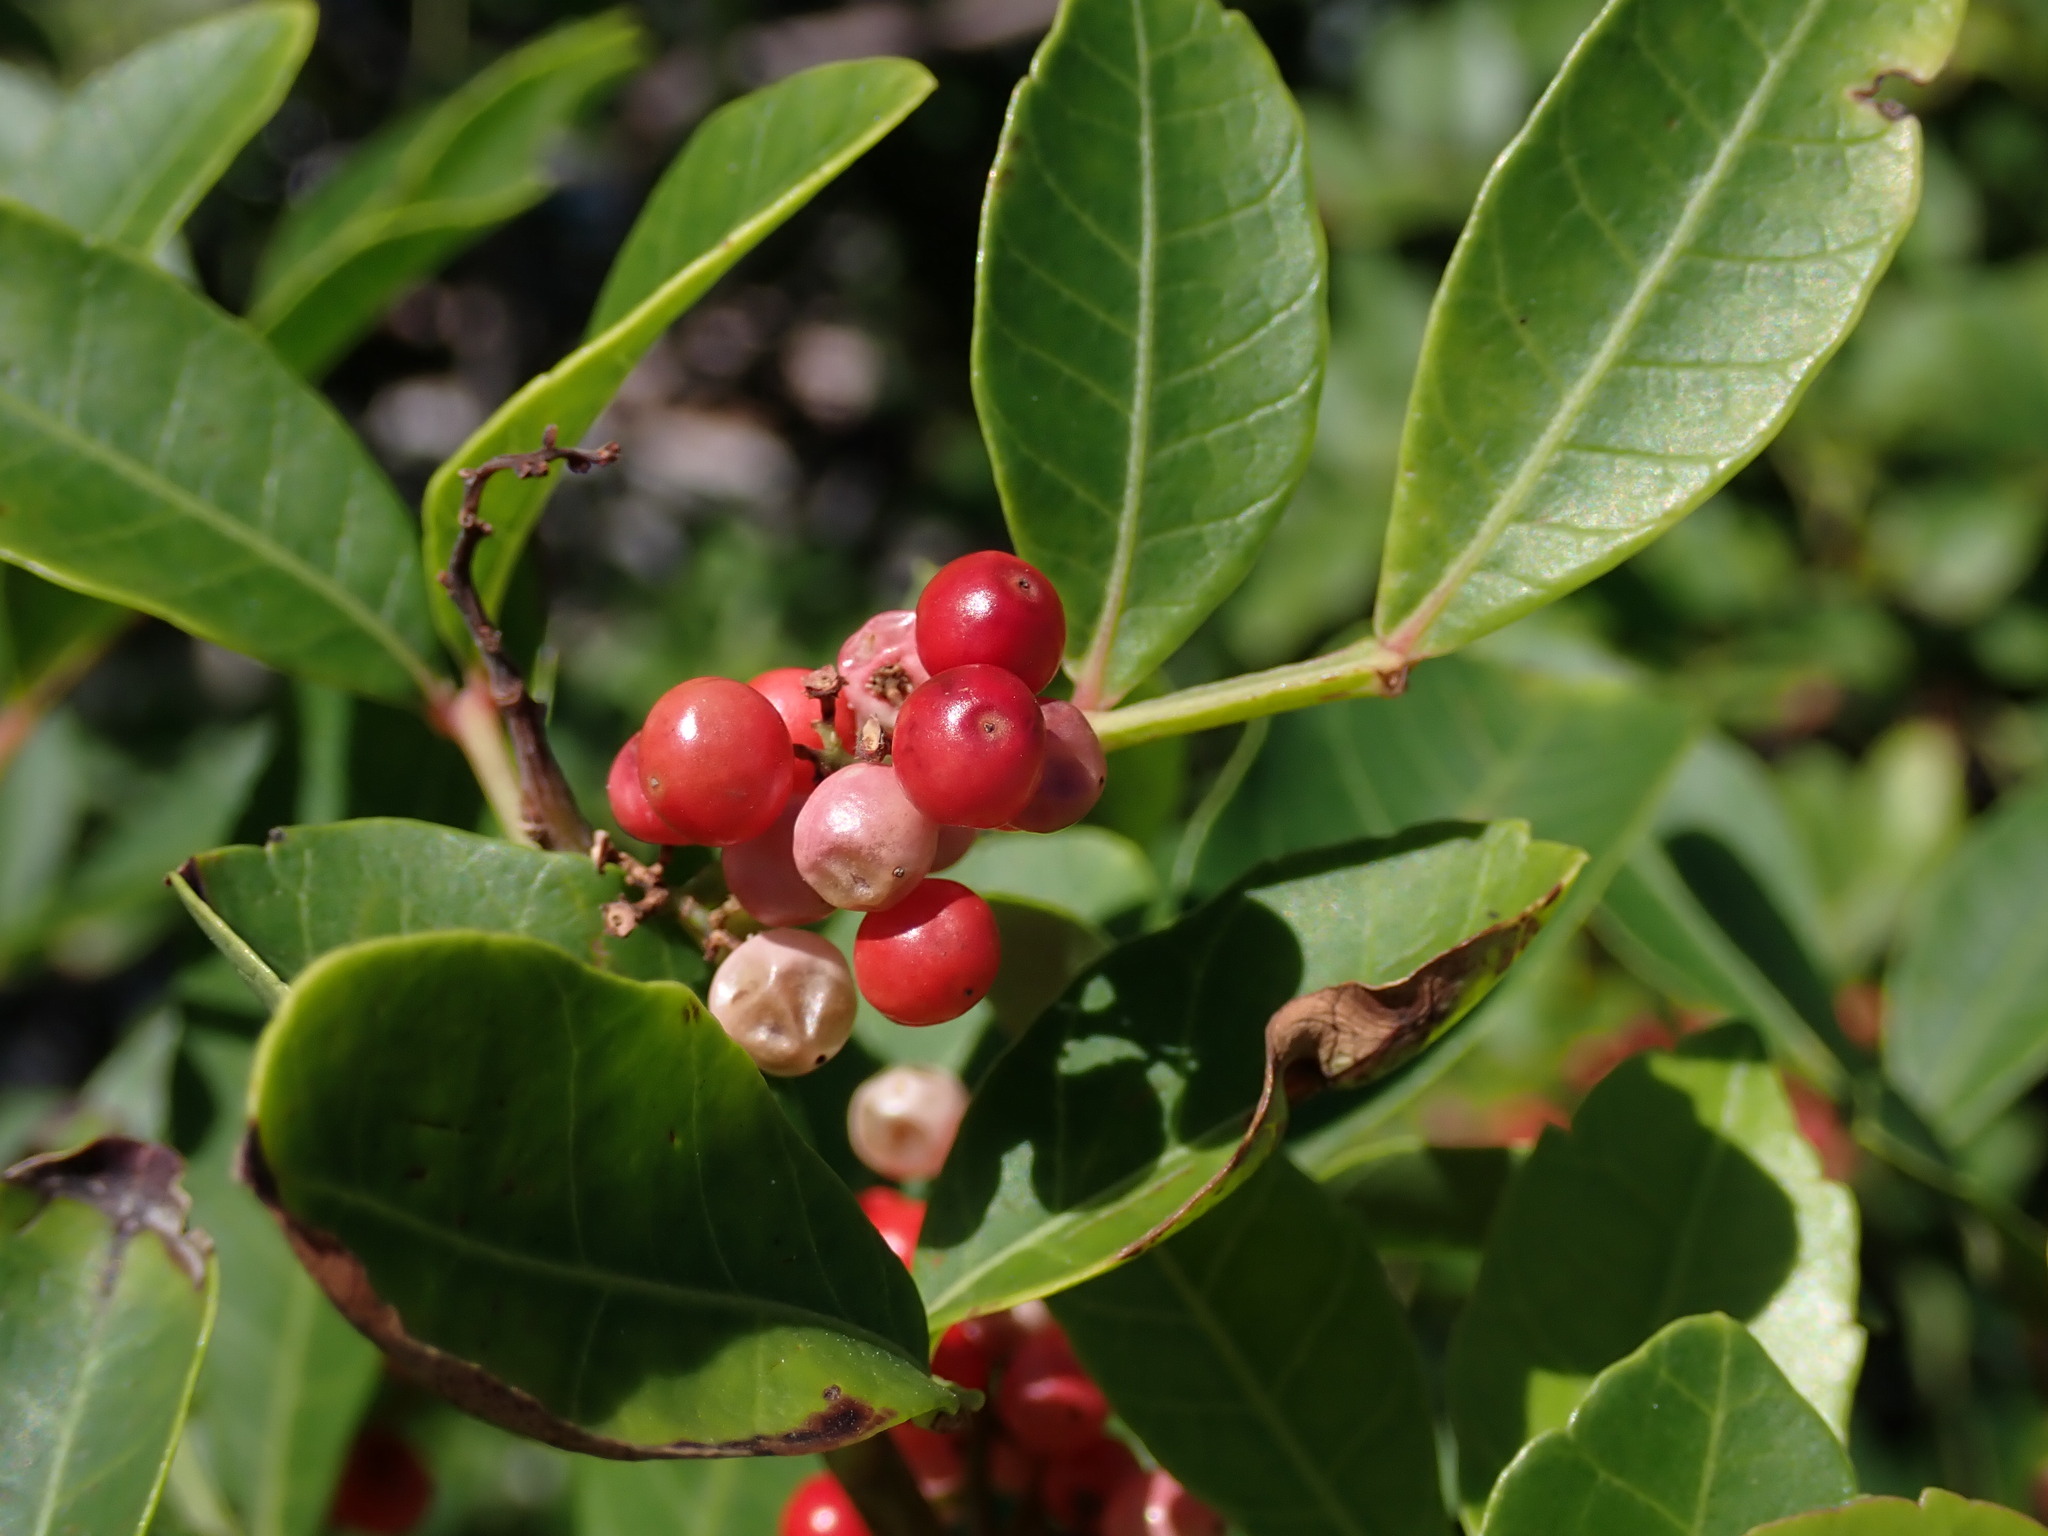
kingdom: Plantae
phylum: Tracheophyta
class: Magnoliopsida
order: Sapindales
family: Anacardiaceae
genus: Schinus
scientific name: Schinus terebinthifolia
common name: Brazilian peppertree
